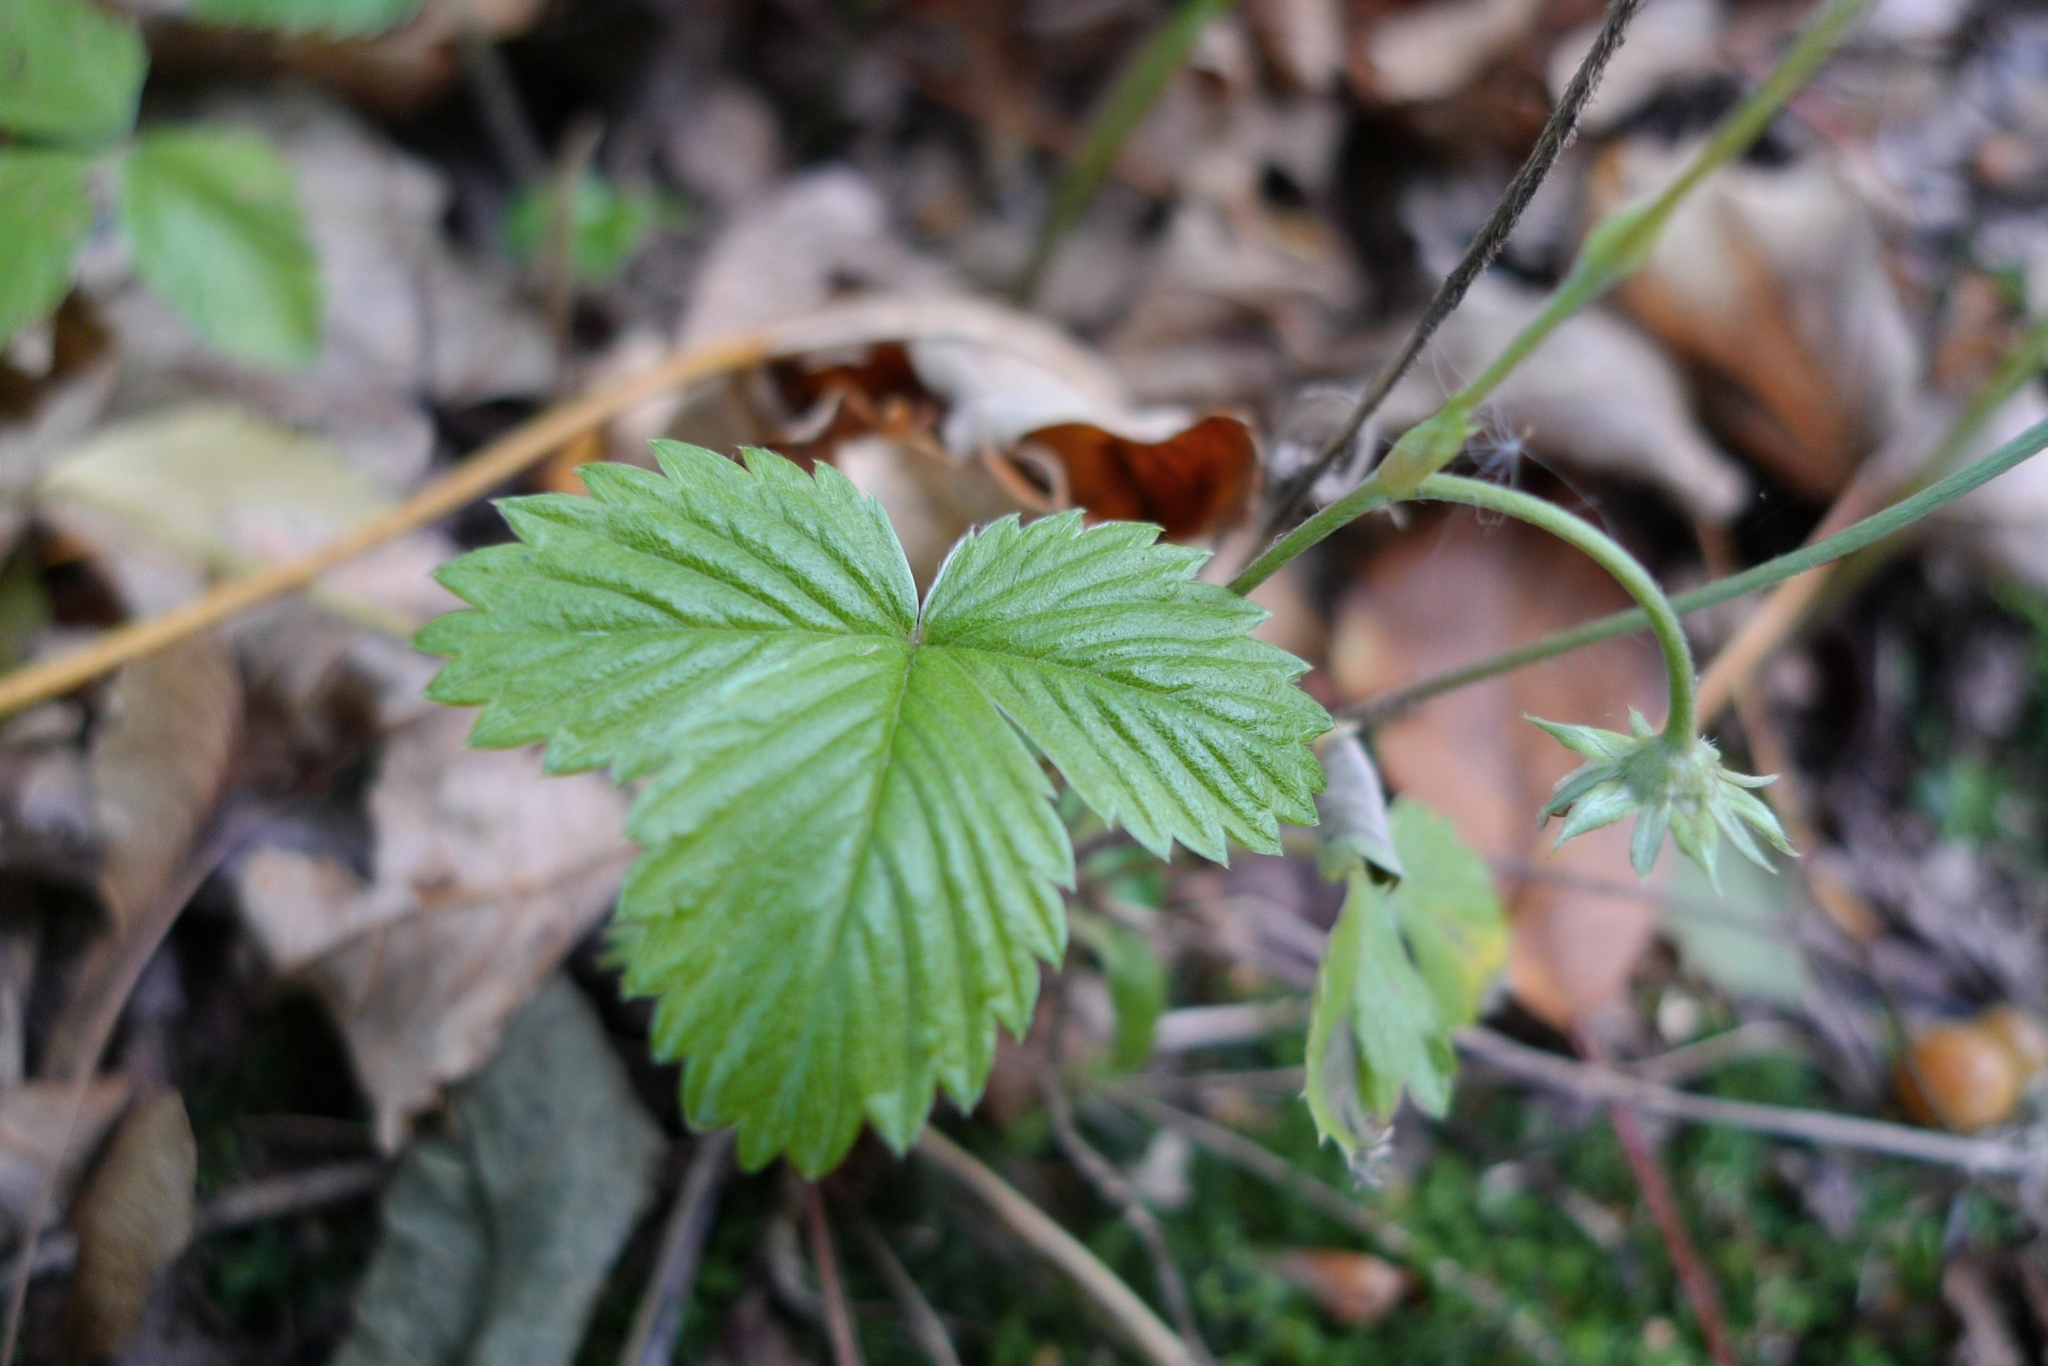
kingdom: Plantae
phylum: Tracheophyta
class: Magnoliopsida
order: Rosales
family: Rosaceae
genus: Fragaria
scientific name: Fragaria vesca
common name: Wild strawberry
